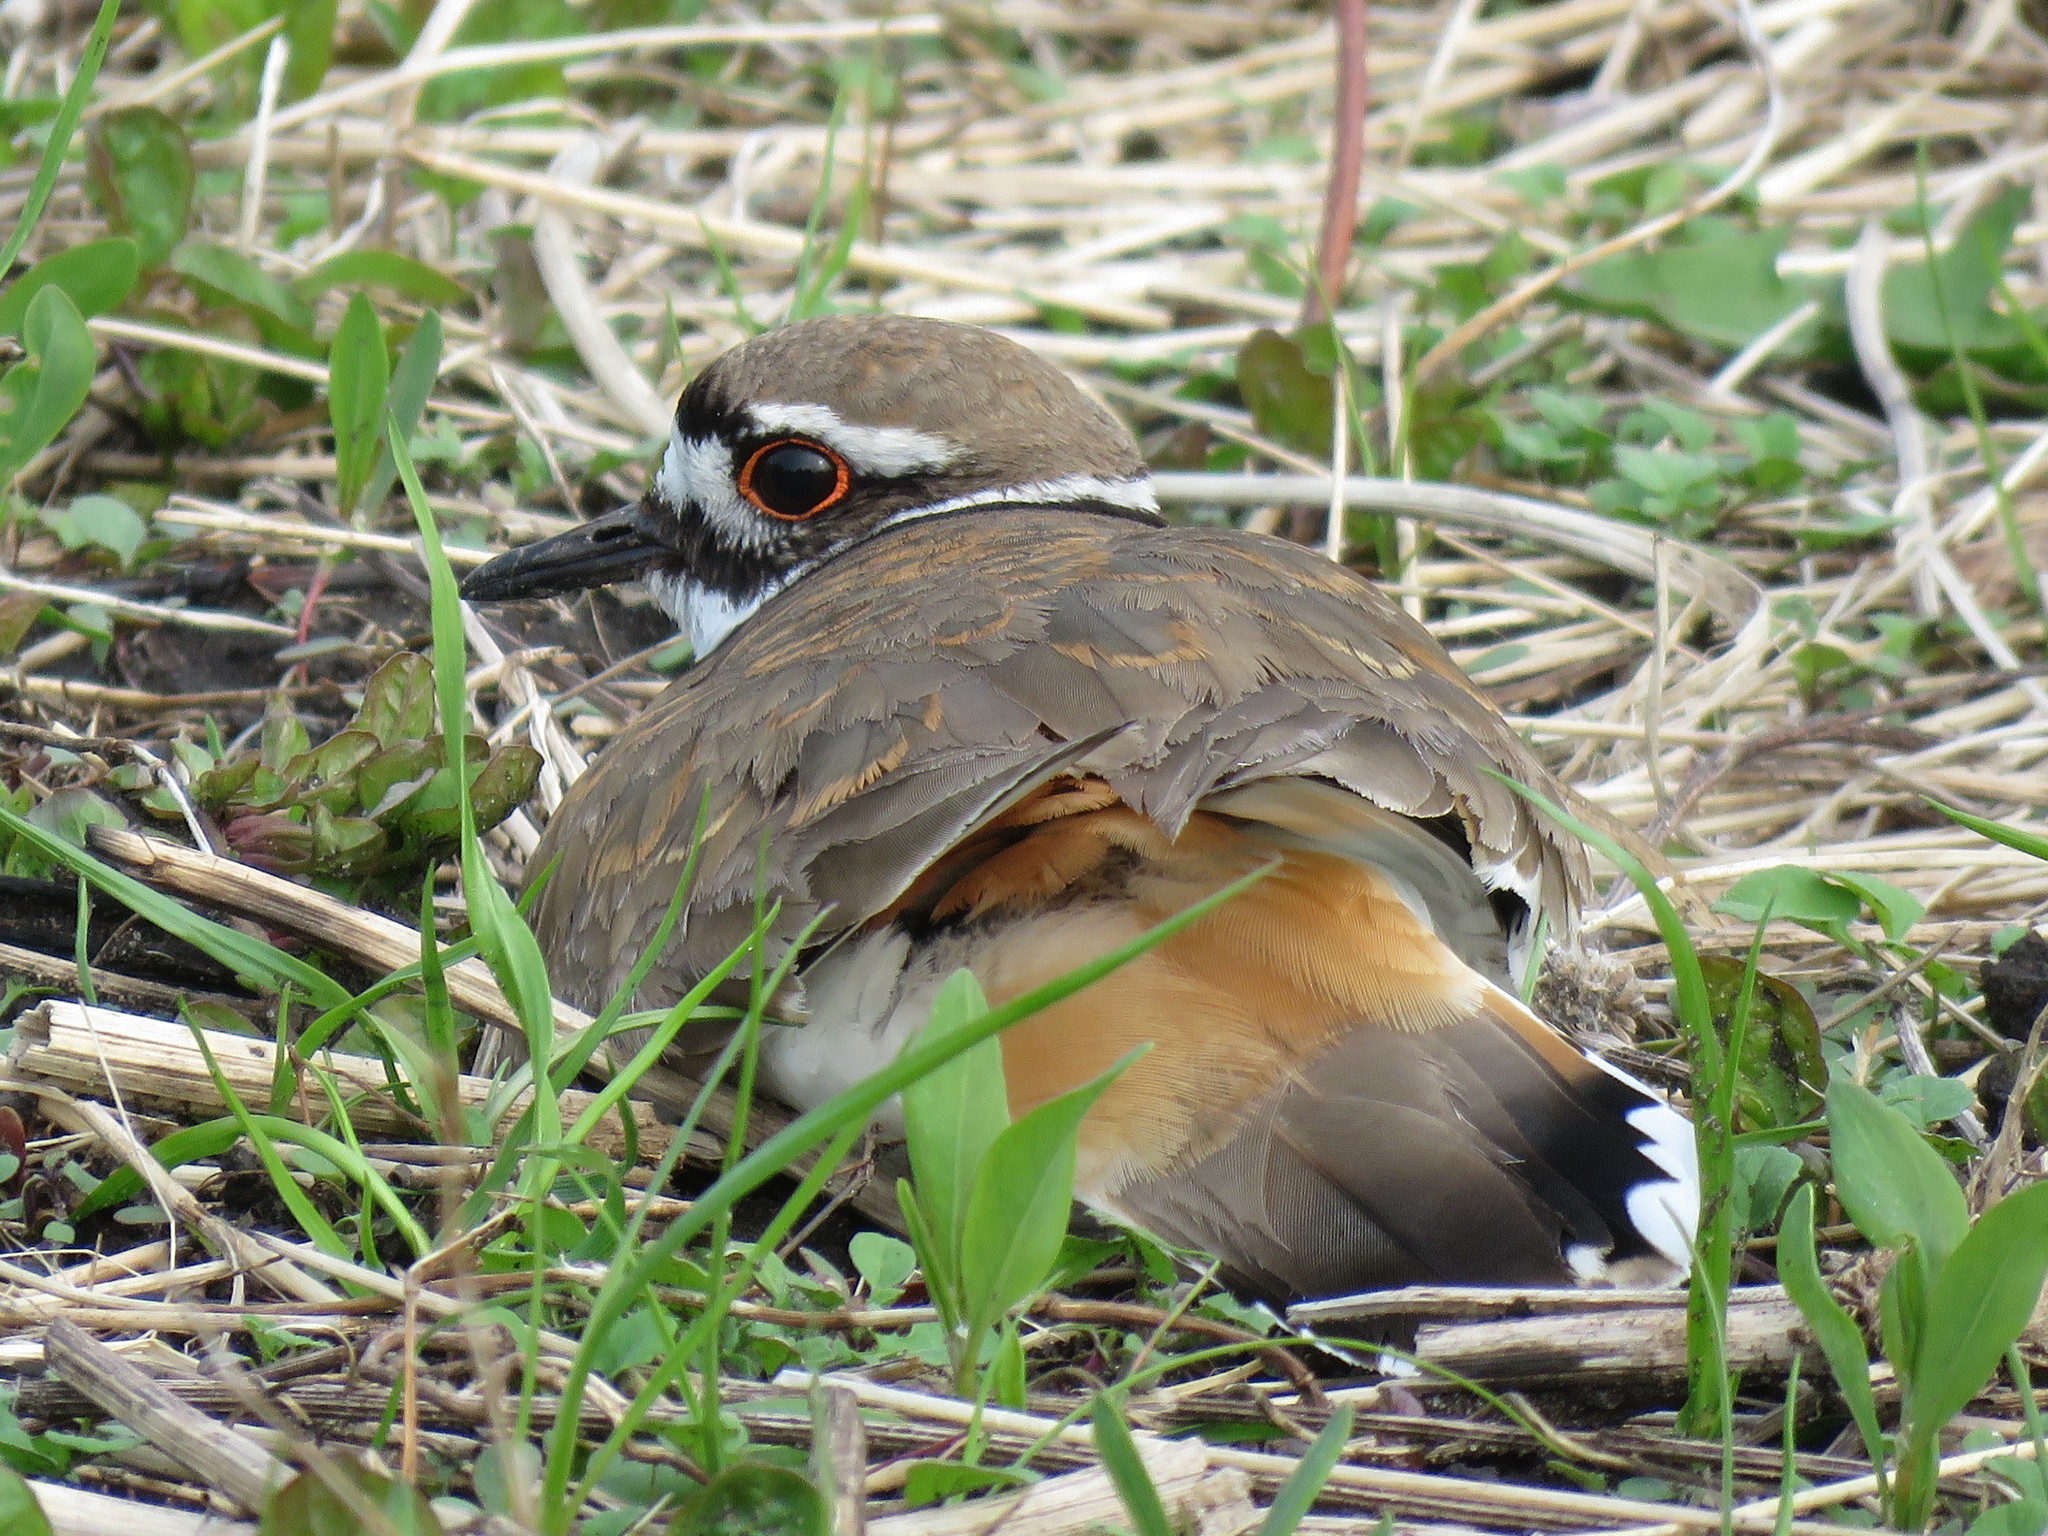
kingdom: Animalia
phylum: Chordata
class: Aves
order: Charadriiformes
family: Charadriidae
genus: Charadrius
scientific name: Charadrius vociferus
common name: Killdeer
